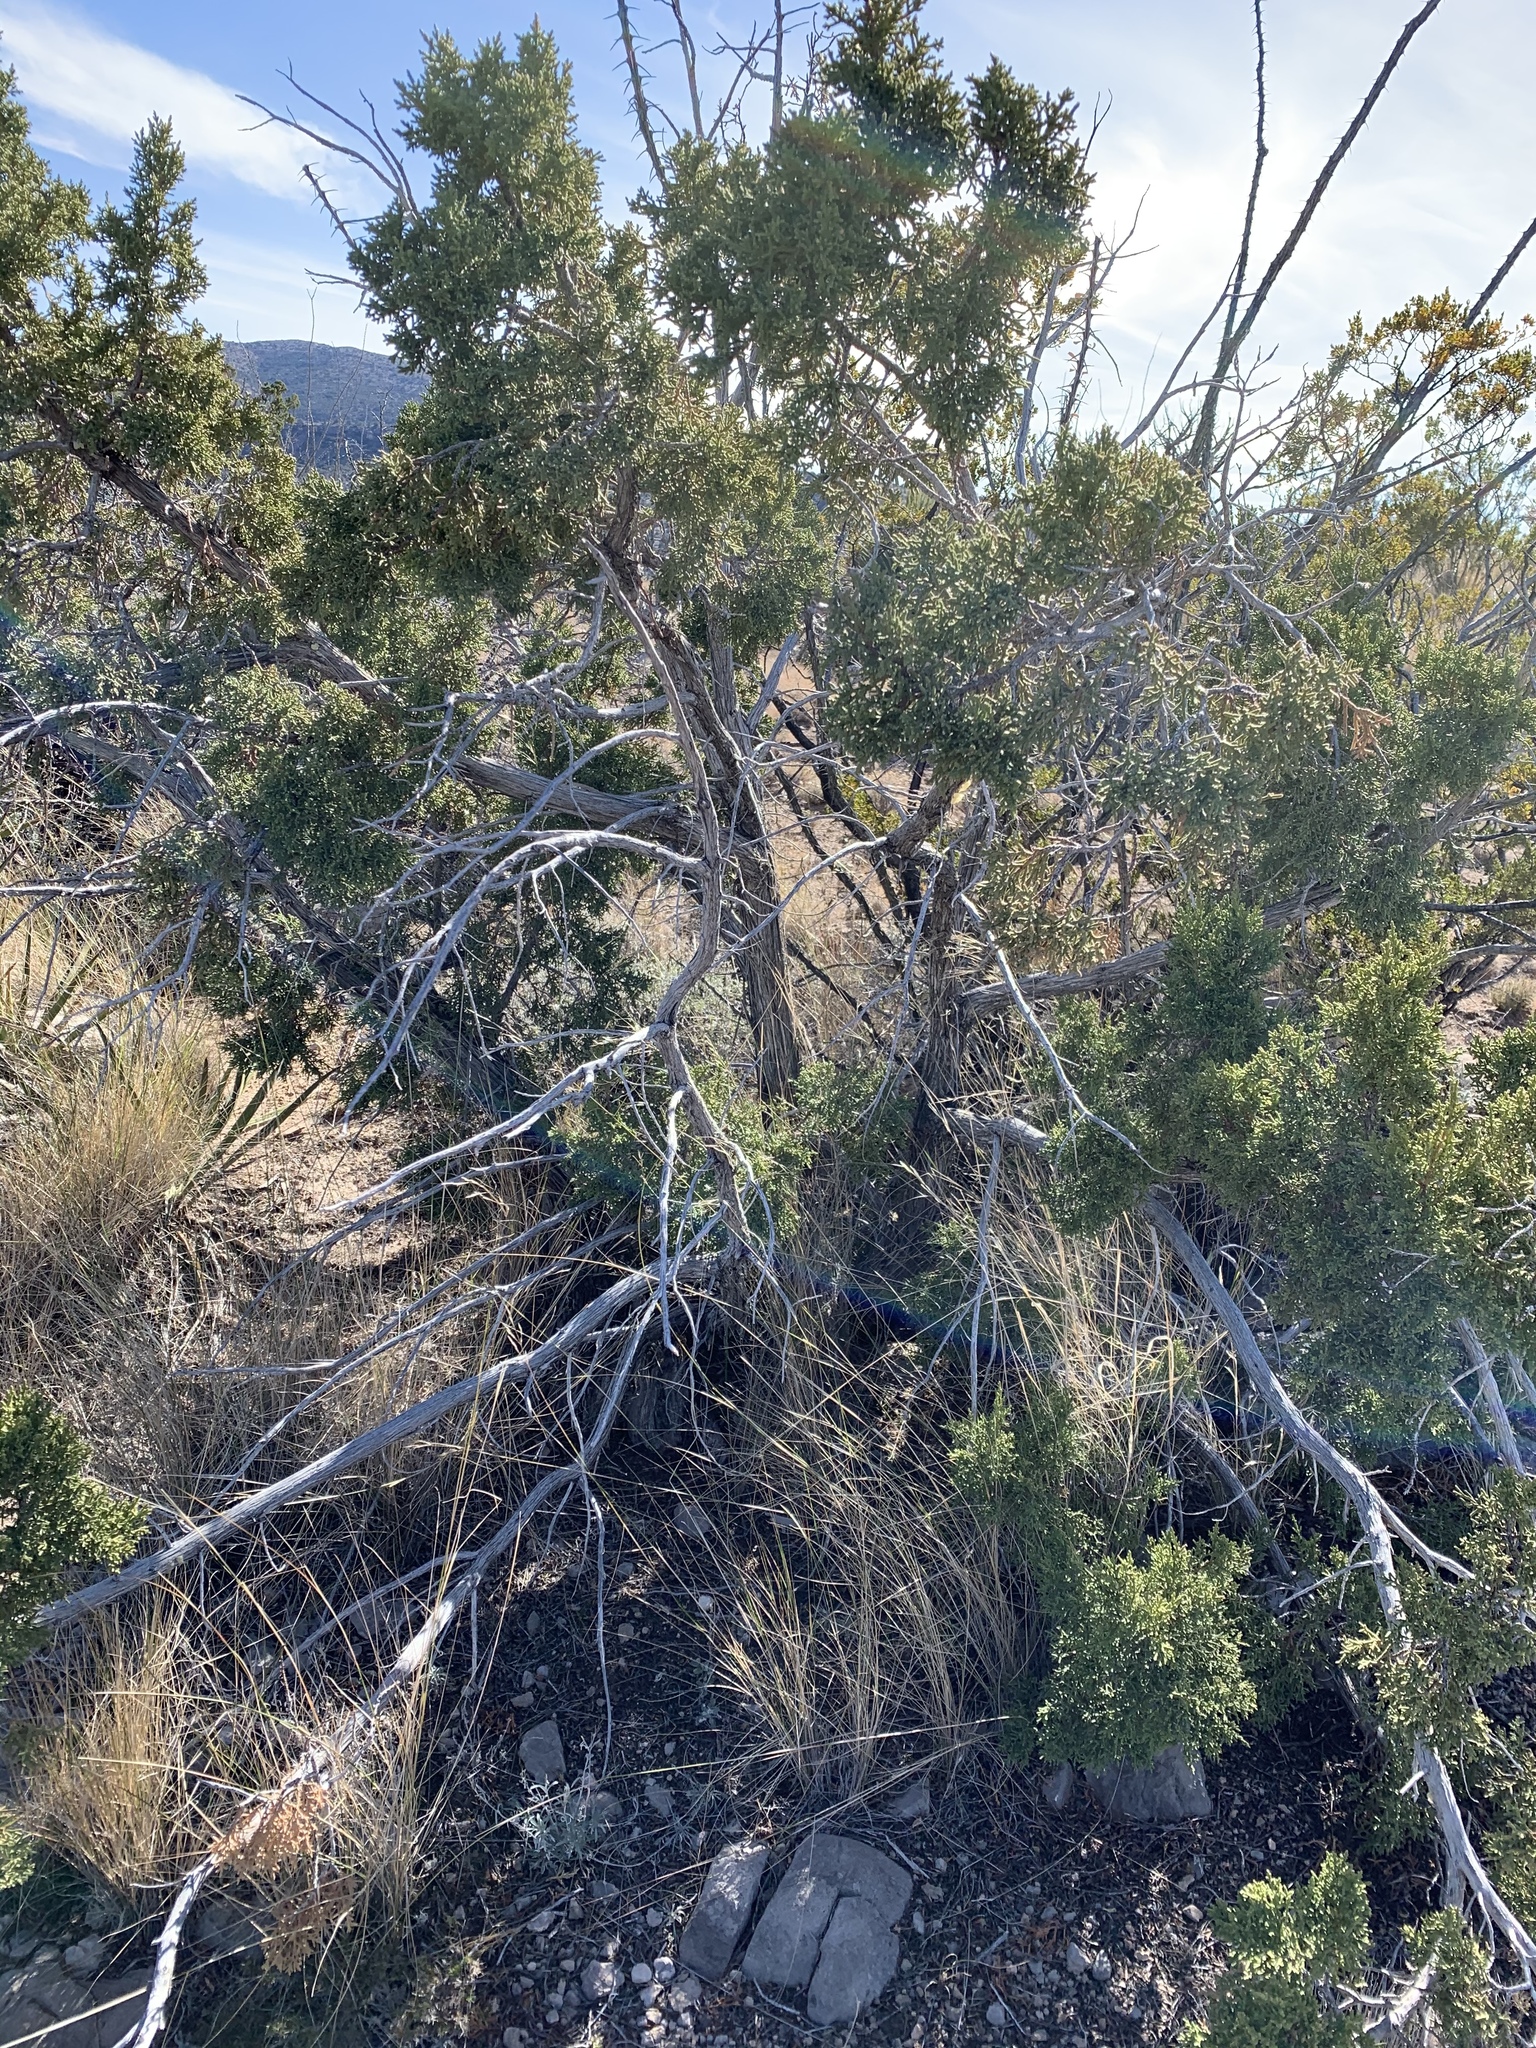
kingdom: Plantae
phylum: Tracheophyta
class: Pinopsida
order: Pinales
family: Cupressaceae
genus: Juniperus
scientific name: Juniperus monosperma
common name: One-seed juniper
